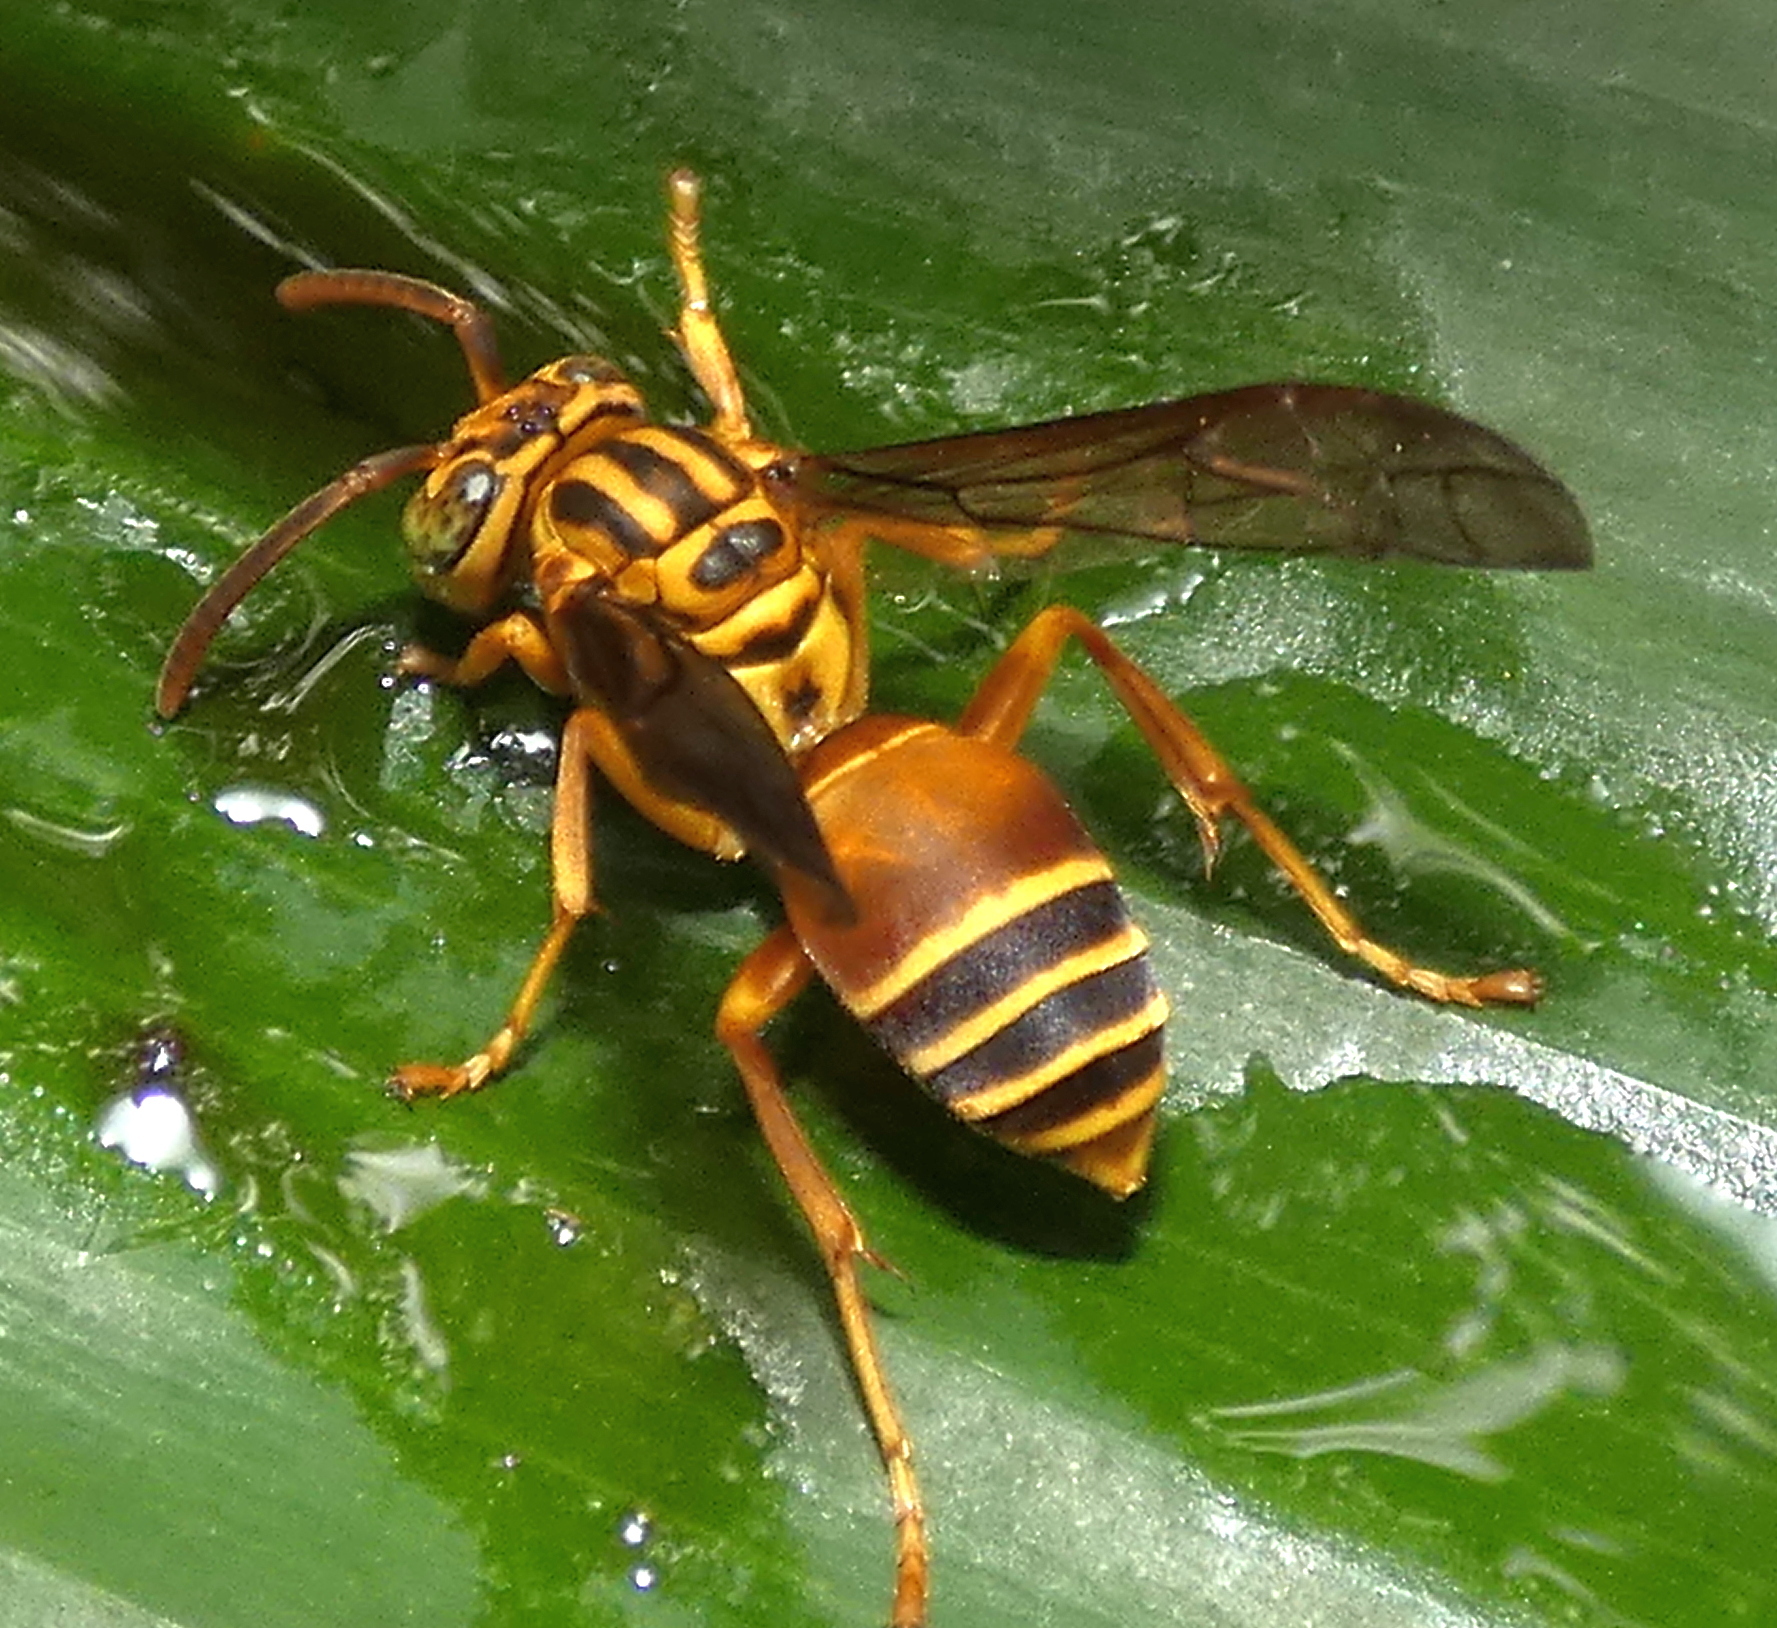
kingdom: Animalia
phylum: Arthropoda
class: Insecta
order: Hymenoptera
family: Vespidae
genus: Parachartergus
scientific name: Parachartergus vespiceps
